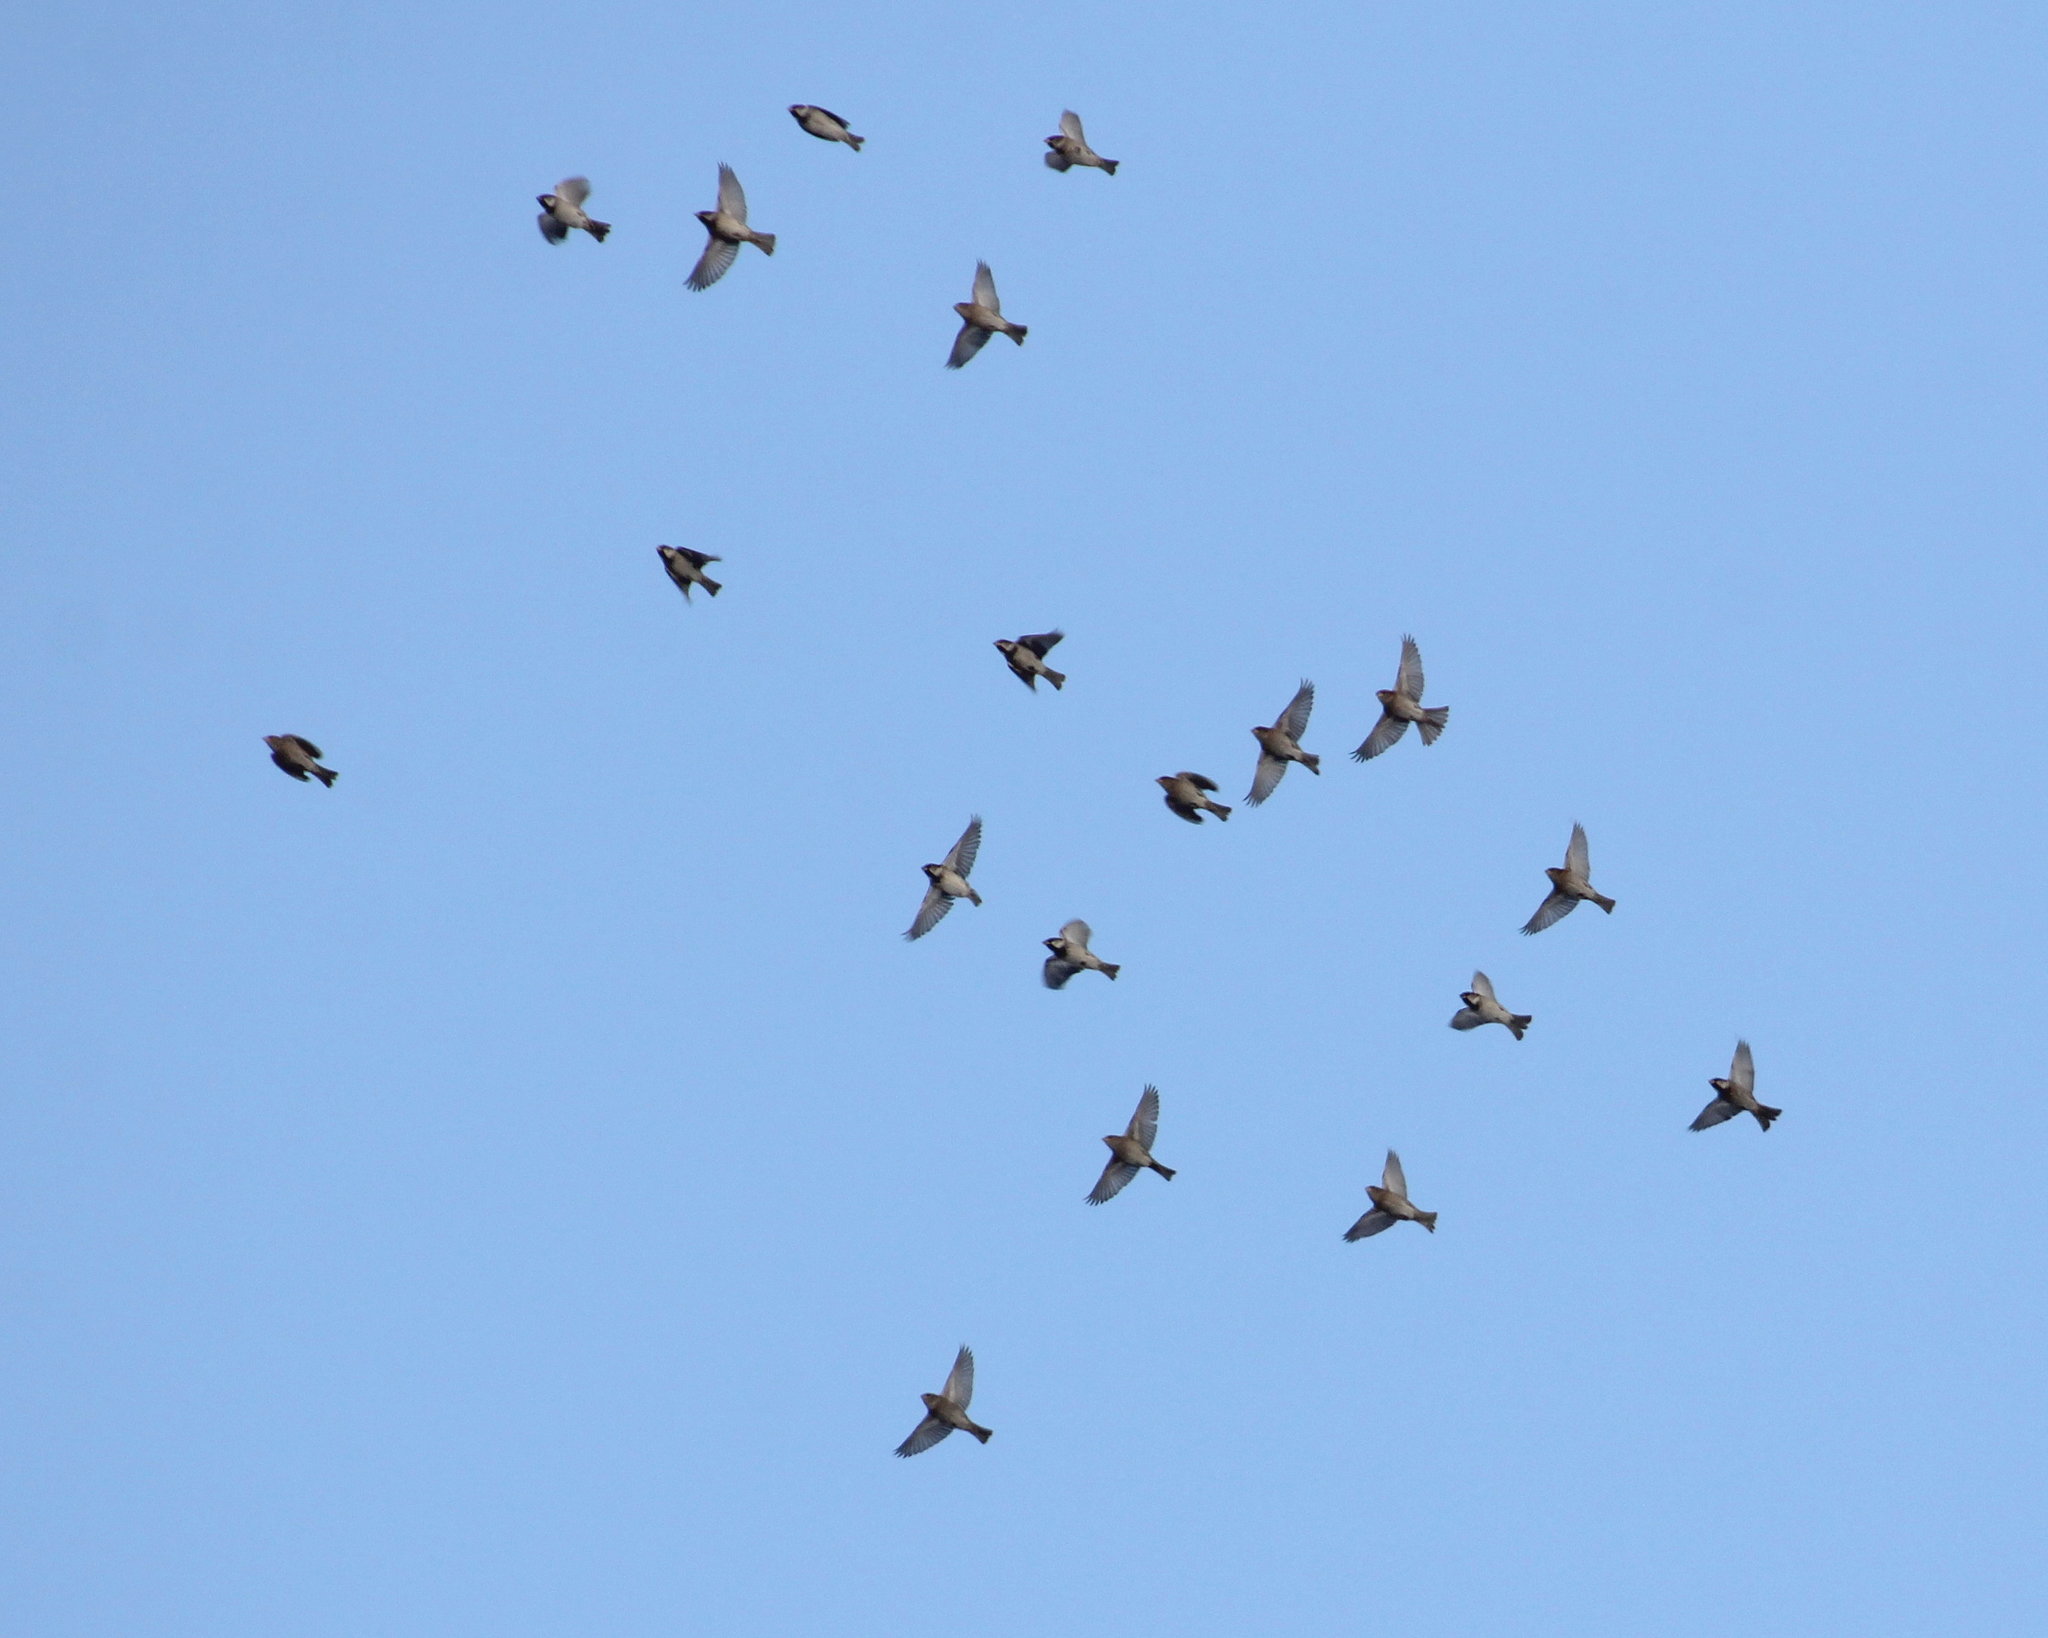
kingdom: Animalia
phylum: Chordata
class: Aves
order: Passeriformes
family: Passeridae
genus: Passer
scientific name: Passer domesticus
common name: House sparrow
